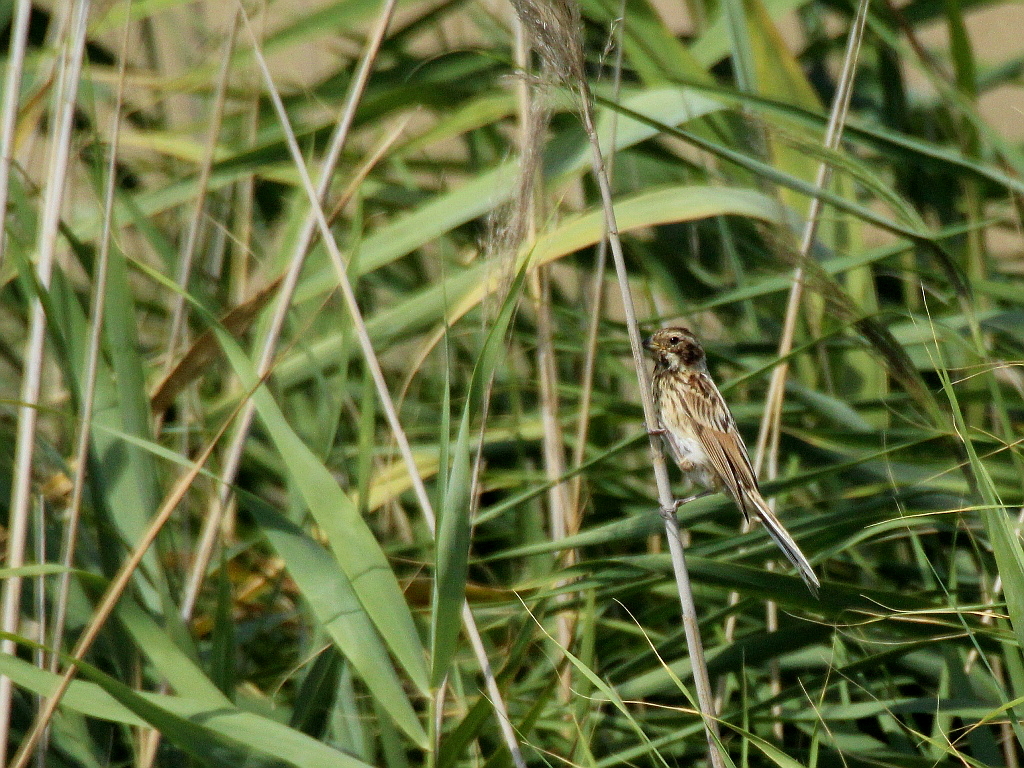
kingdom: Animalia
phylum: Chordata
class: Aves
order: Passeriformes
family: Emberizidae
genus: Emberiza
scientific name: Emberiza schoeniclus
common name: Reed bunting
